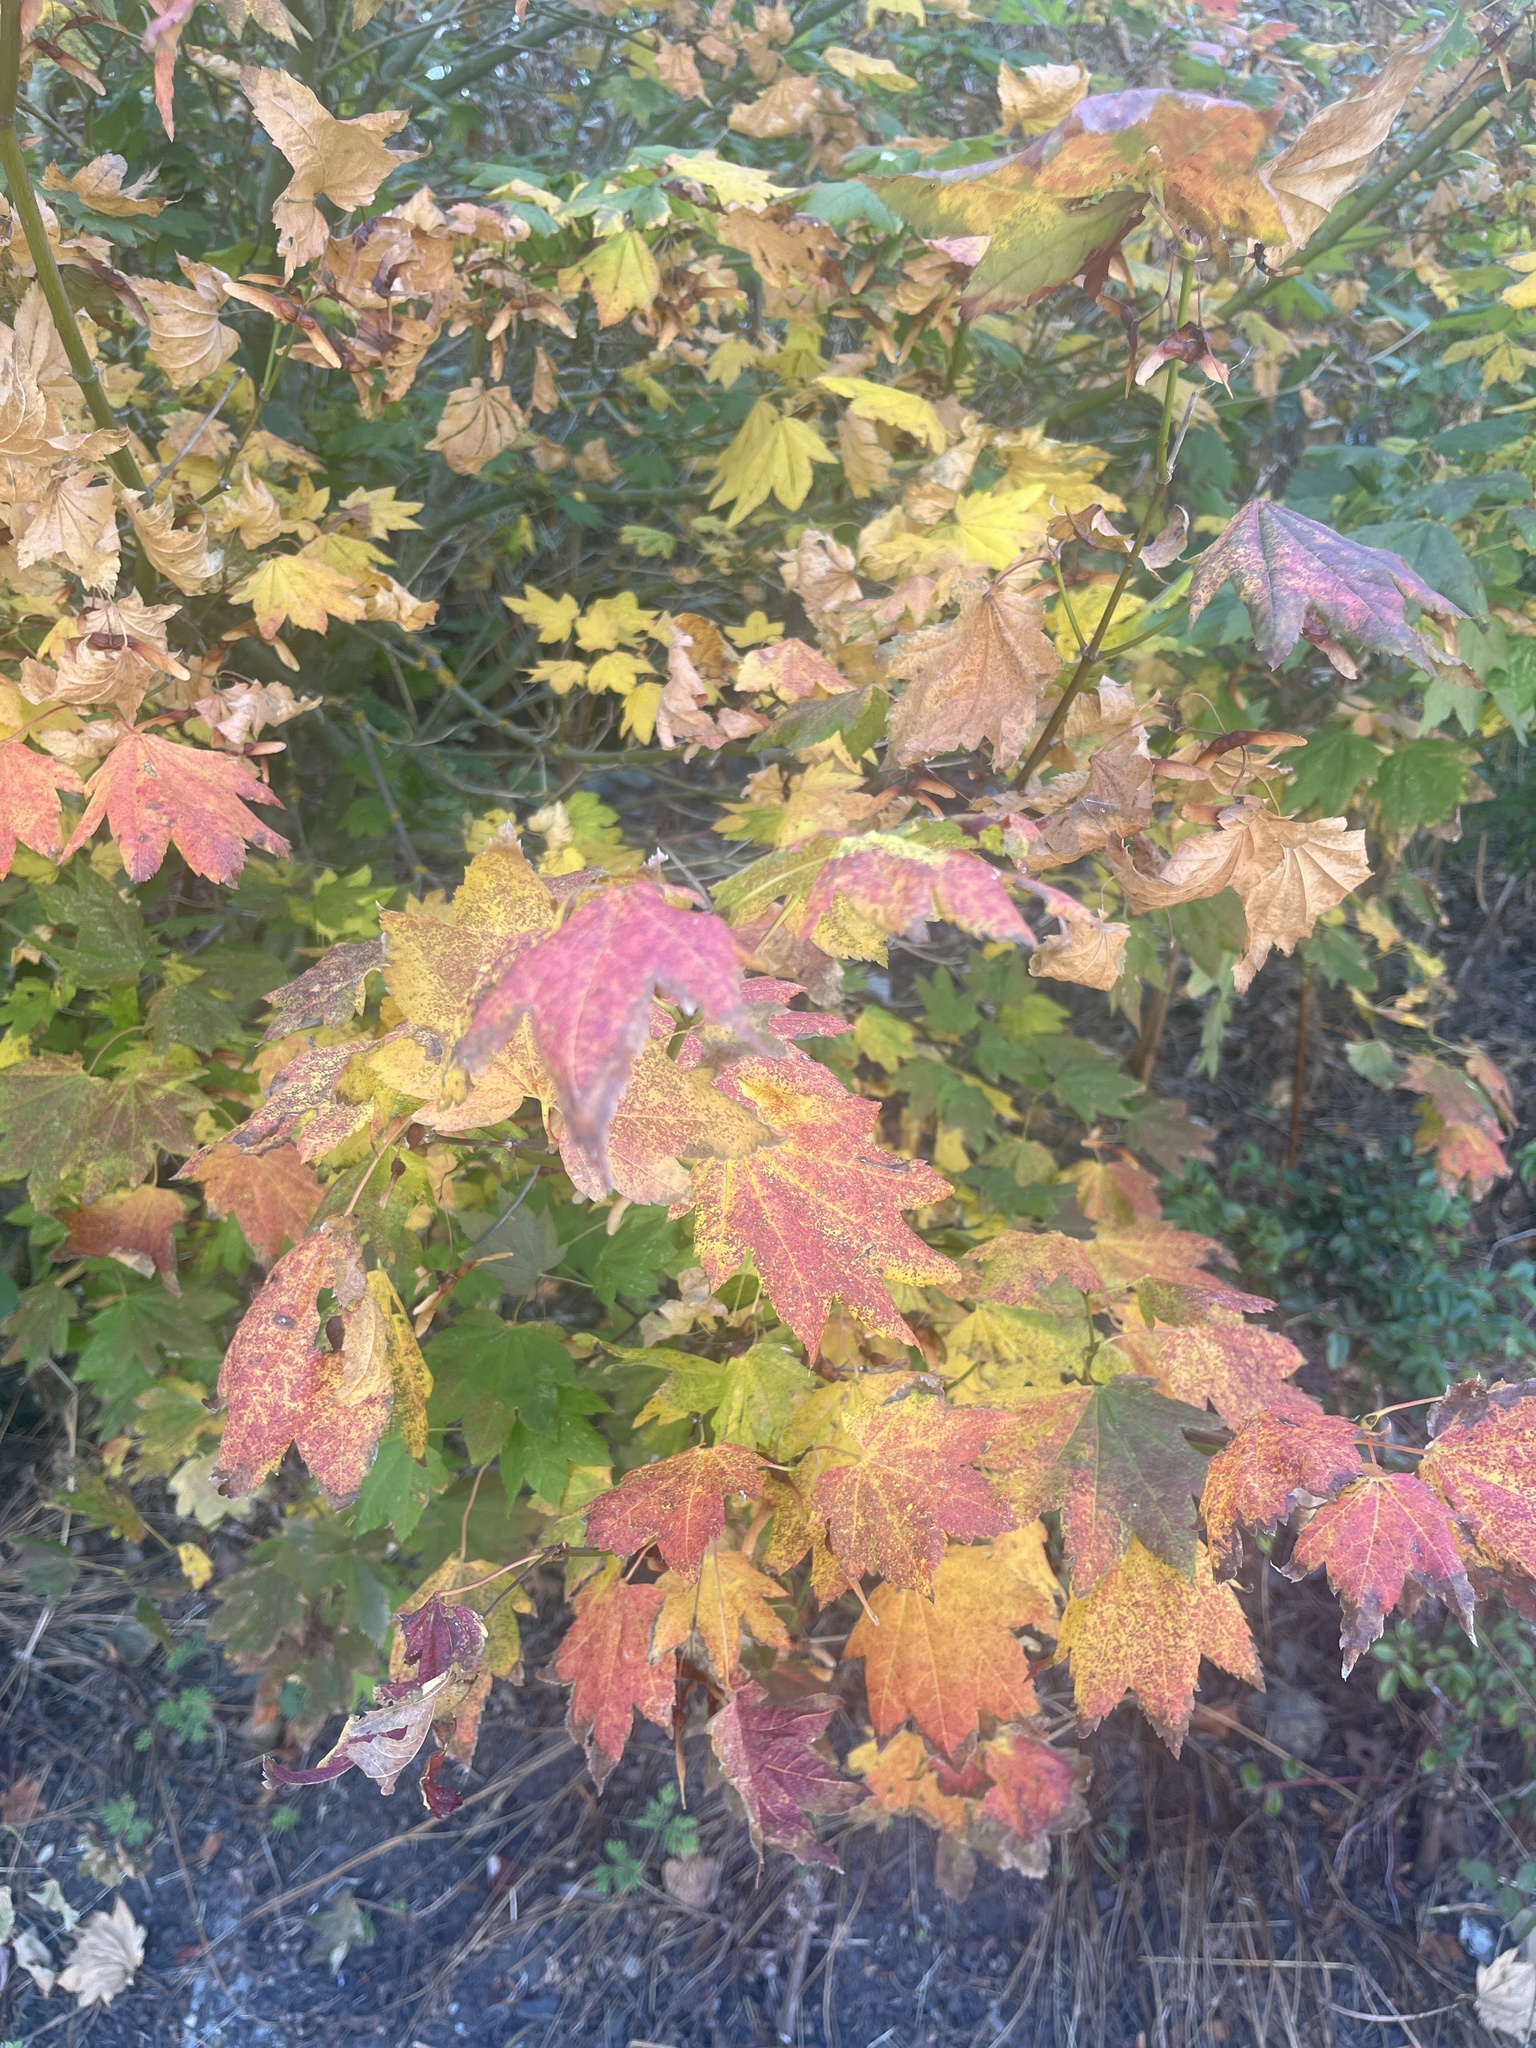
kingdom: Plantae
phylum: Tracheophyta
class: Magnoliopsida
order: Sapindales
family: Sapindaceae
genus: Acer
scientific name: Acer circinatum
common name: Vine maple
